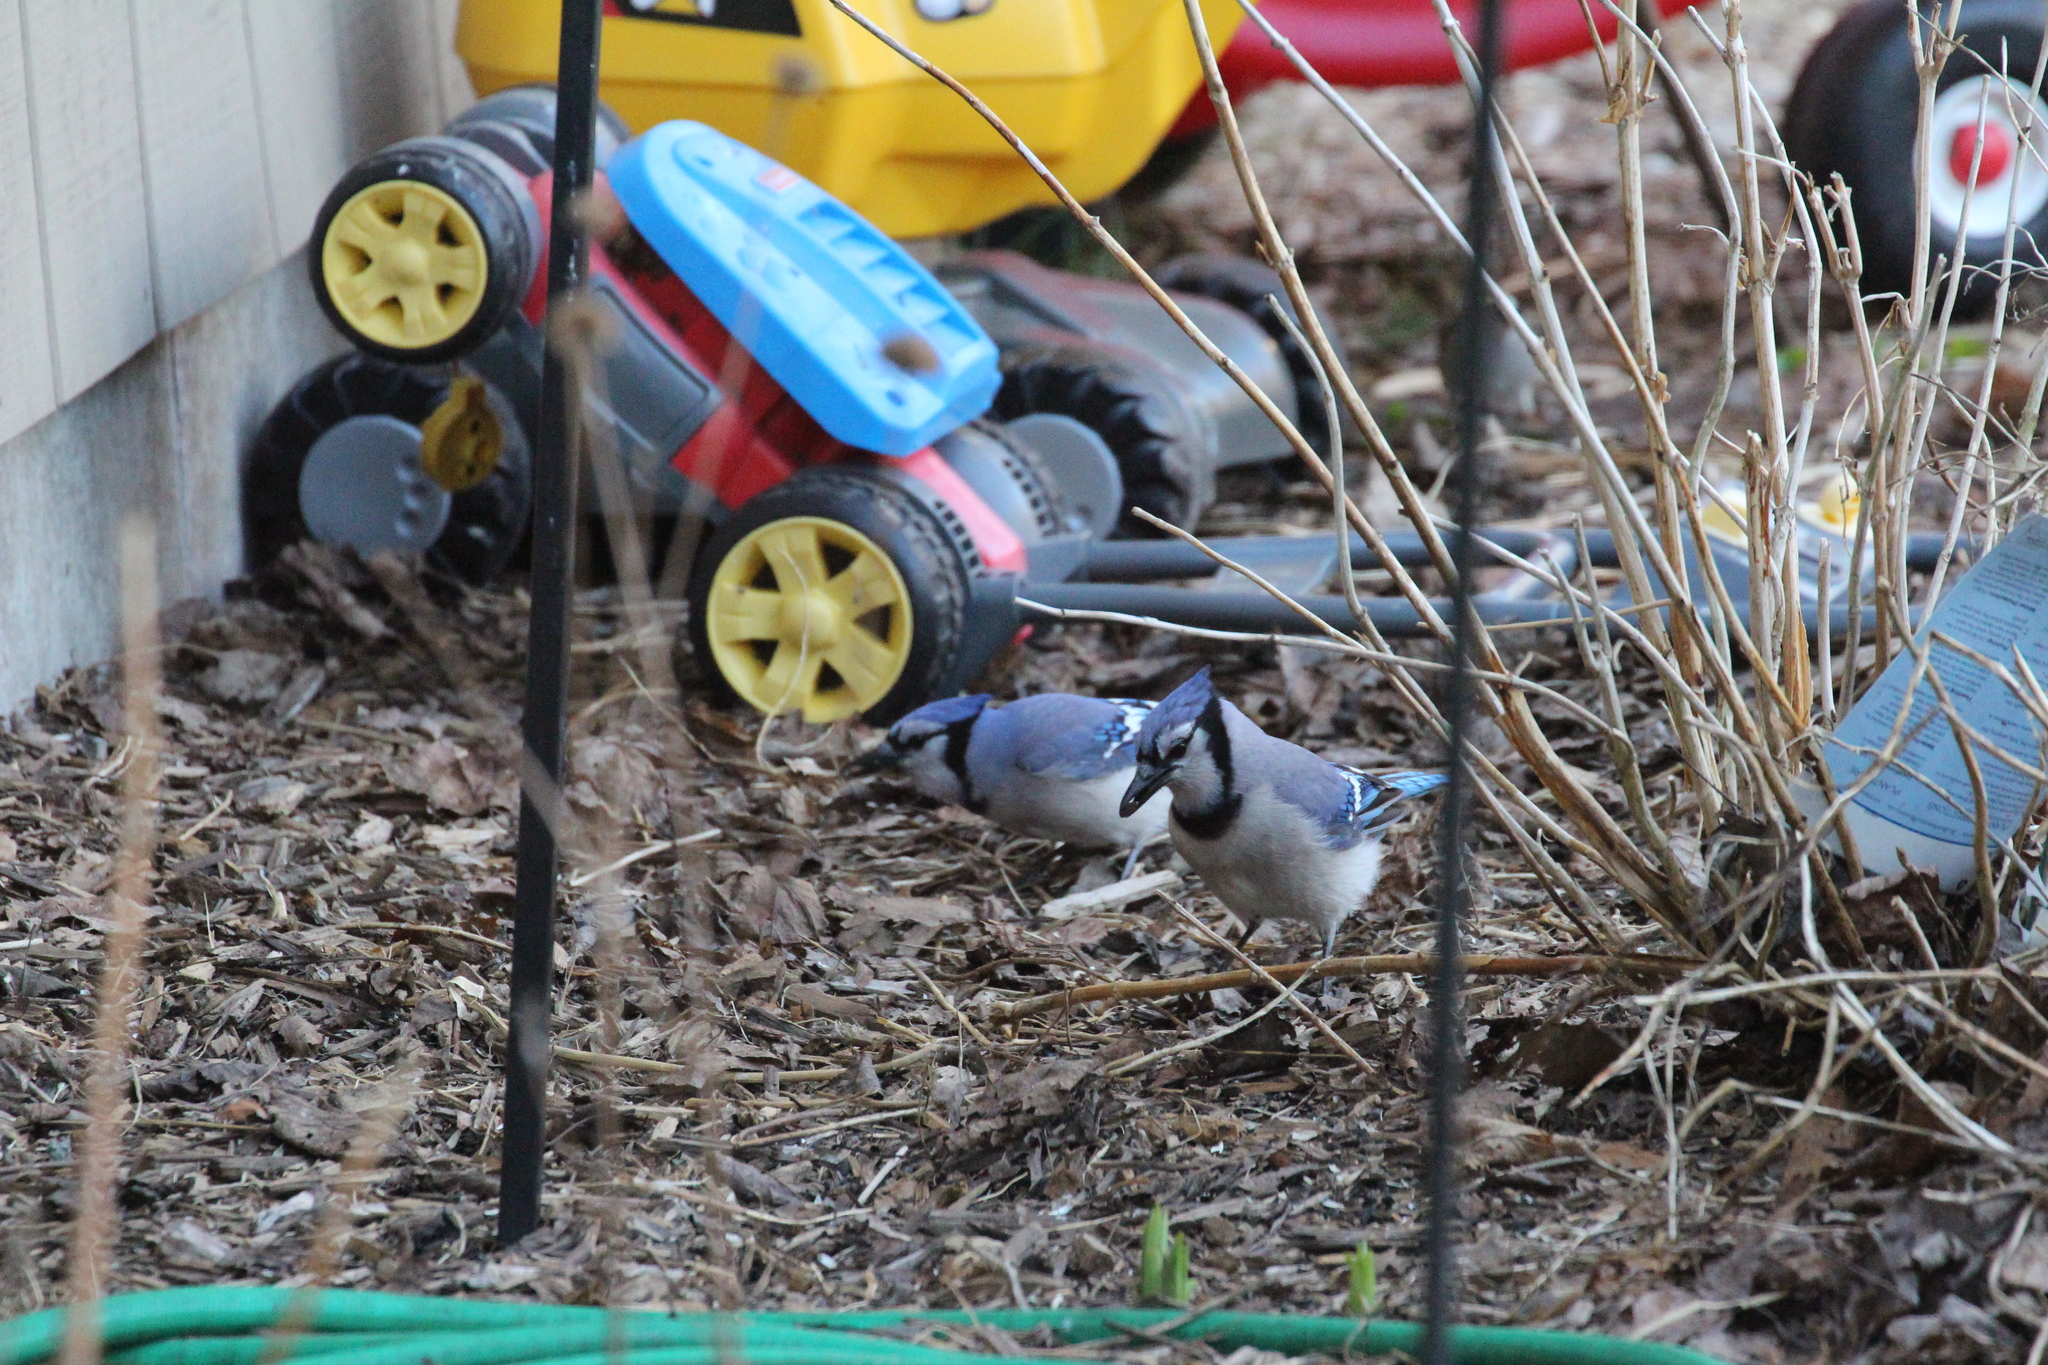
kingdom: Animalia
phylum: Chordata
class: Aves
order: Passeriformes
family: Corvidae
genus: Cyanocitta
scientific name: Cyanocitta cristata
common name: Blue jay
